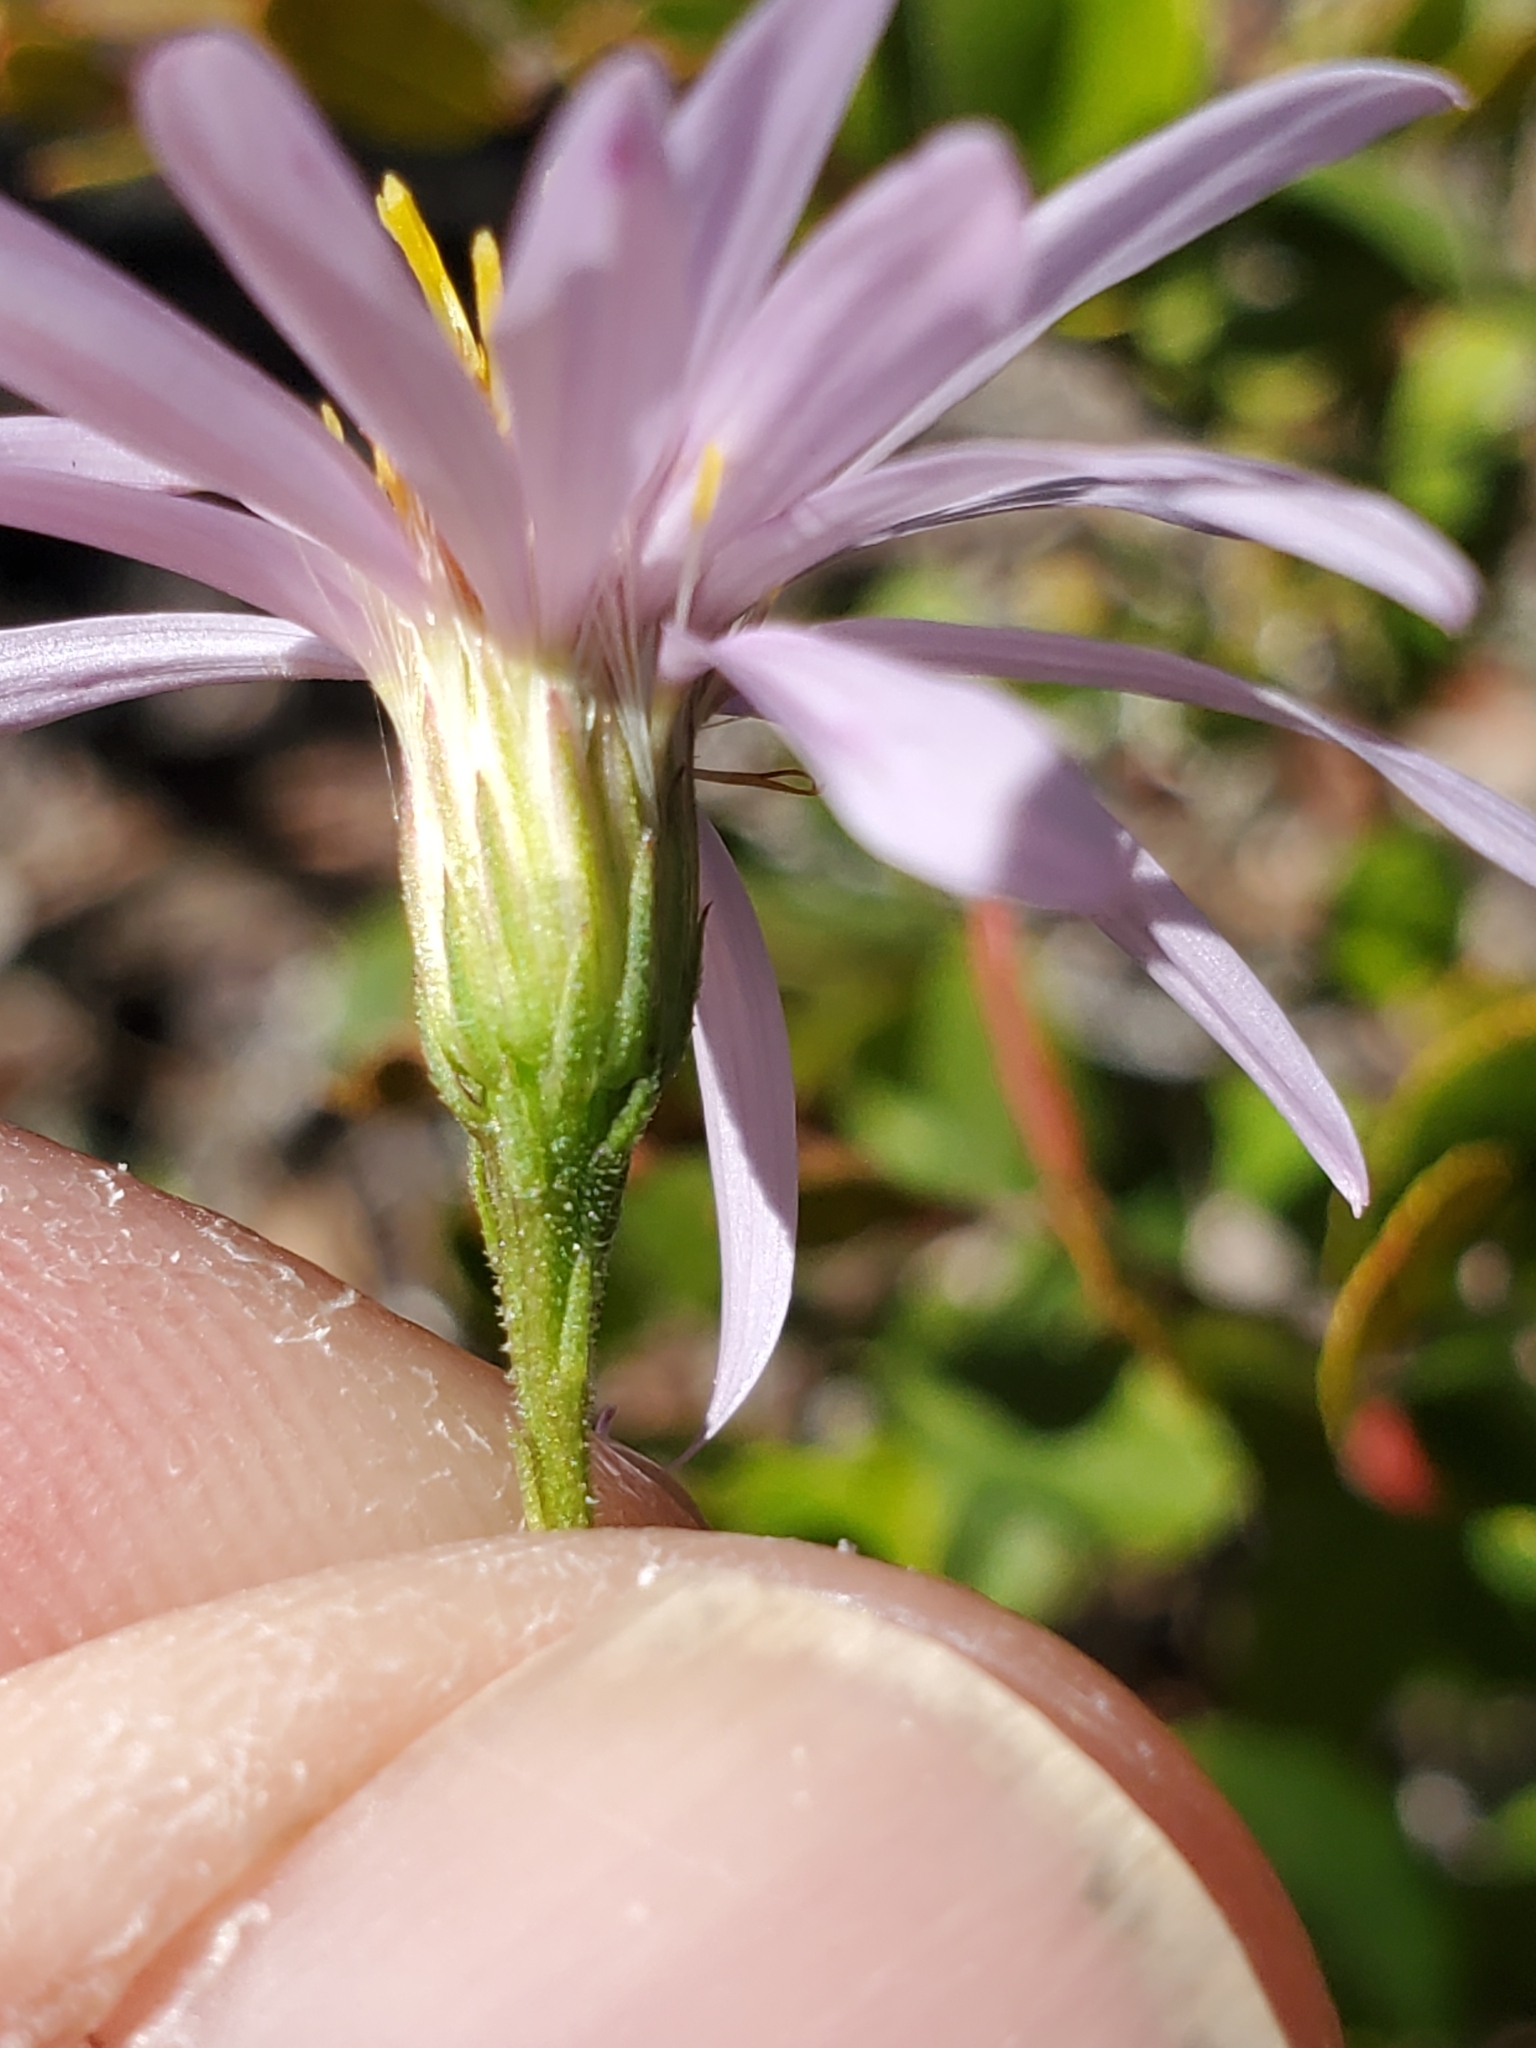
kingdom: Plantae
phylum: Tracheophyta
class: Magnoliopsida
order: Asterales
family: Asteraceae
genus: Oclemena
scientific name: Oclemena nemoralis
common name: Bog aster
